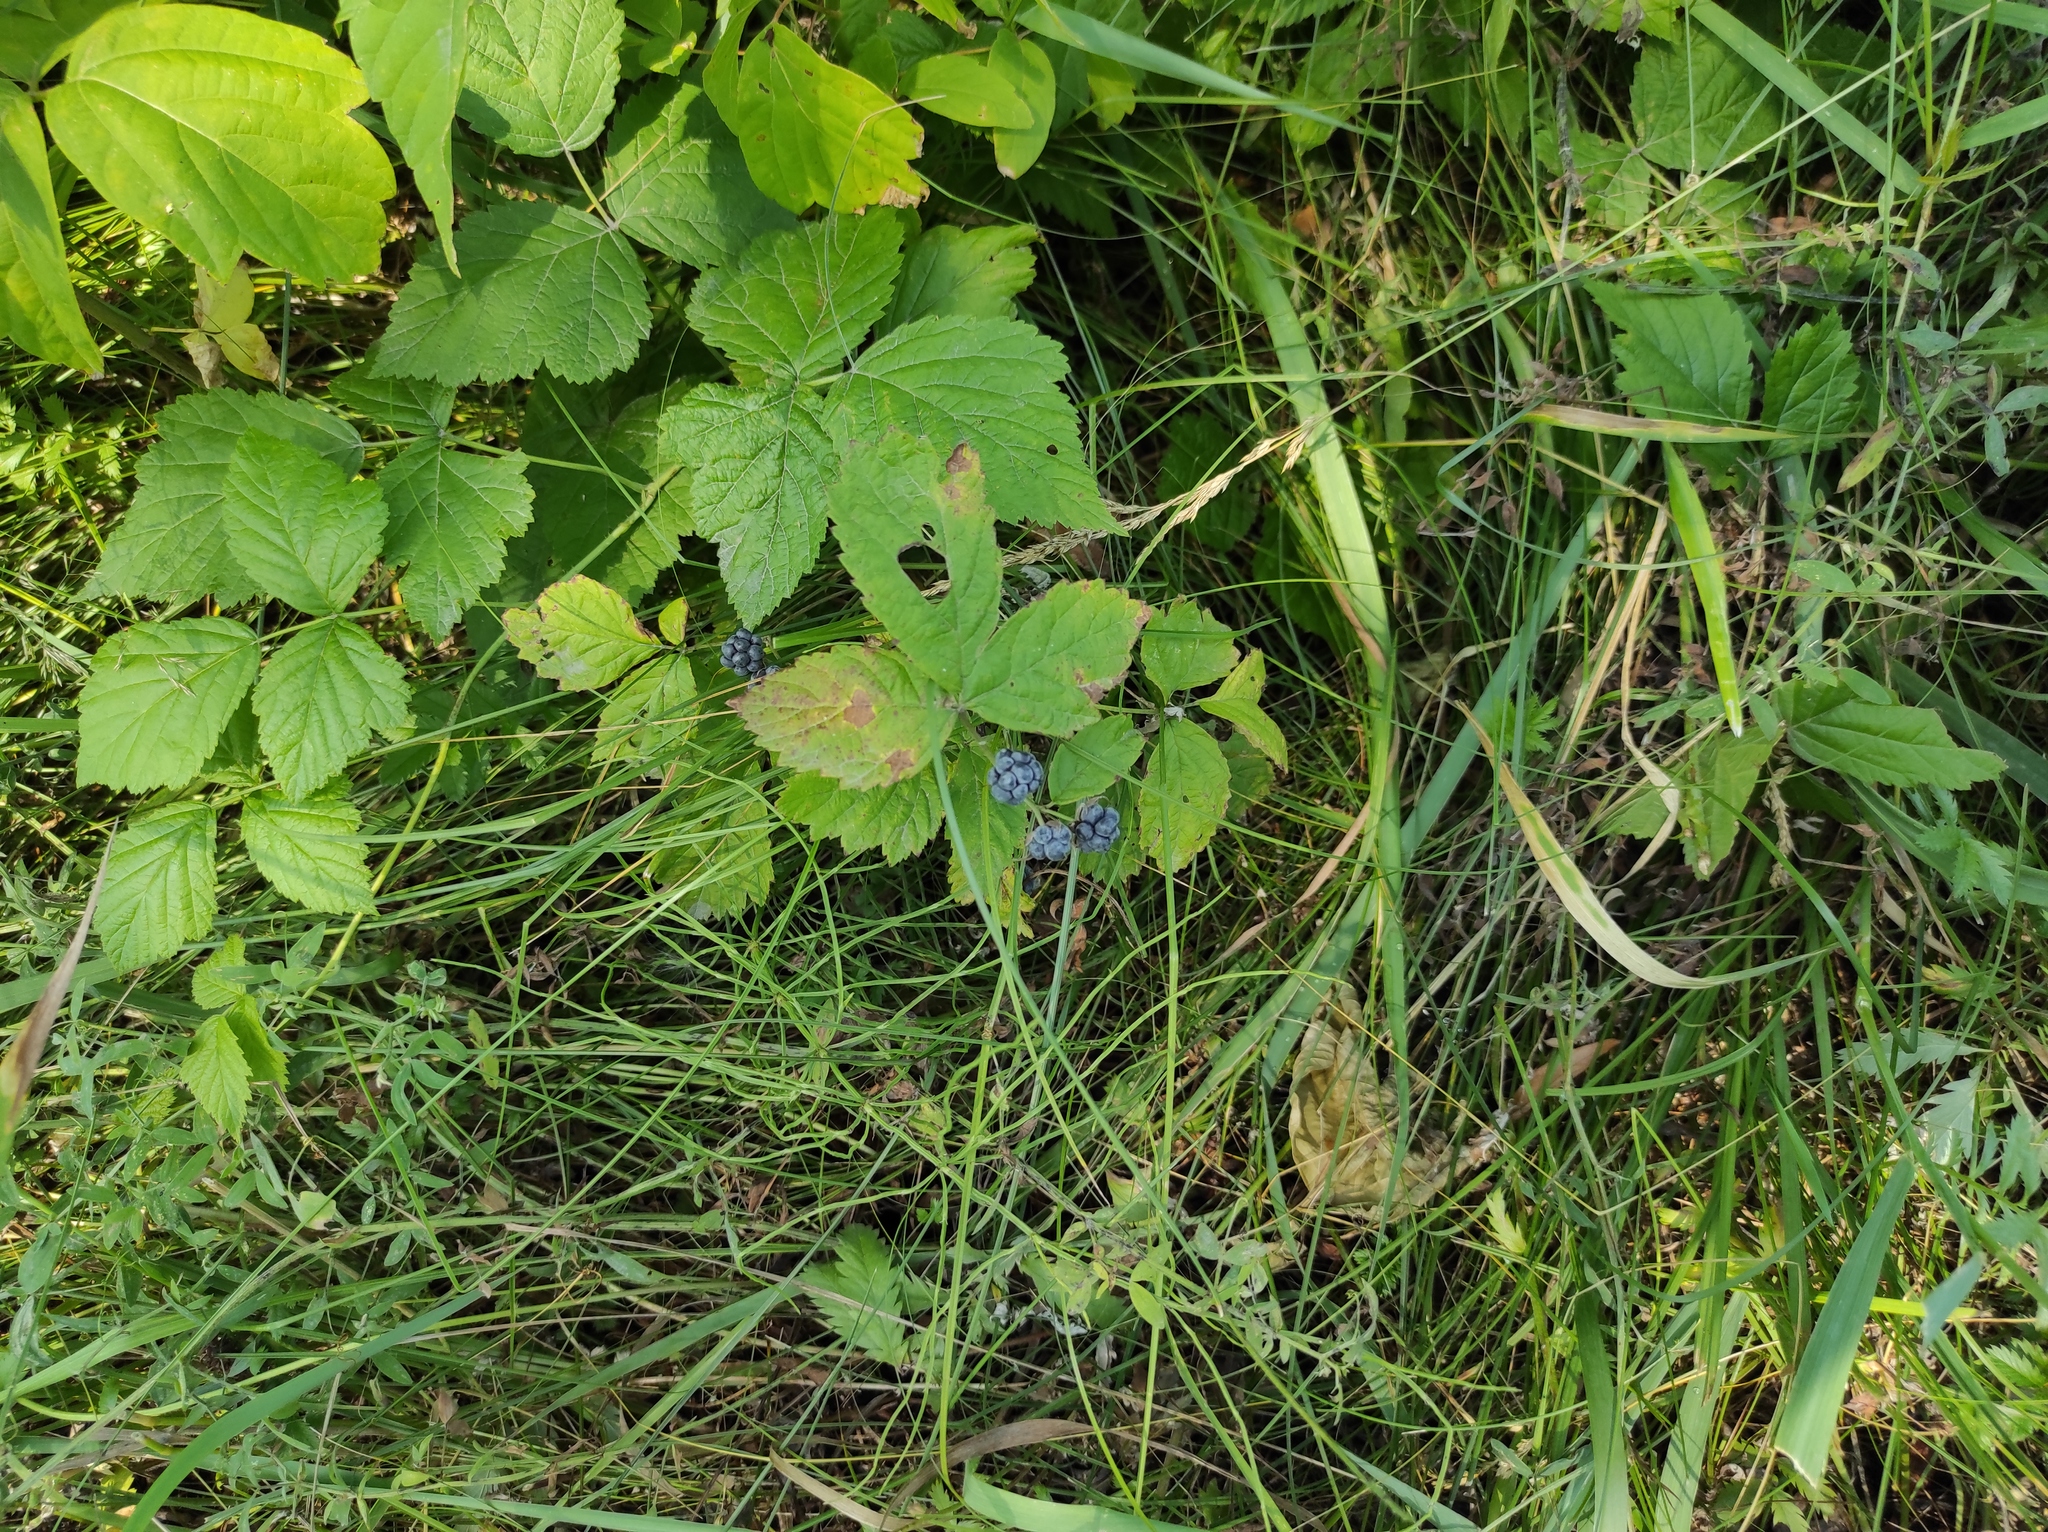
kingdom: Plantae
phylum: Tracheophyta
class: Magnoliopsida
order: Rosales
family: Rosaceae
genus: Rubus
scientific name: Rubus caesius
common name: Dewberry
